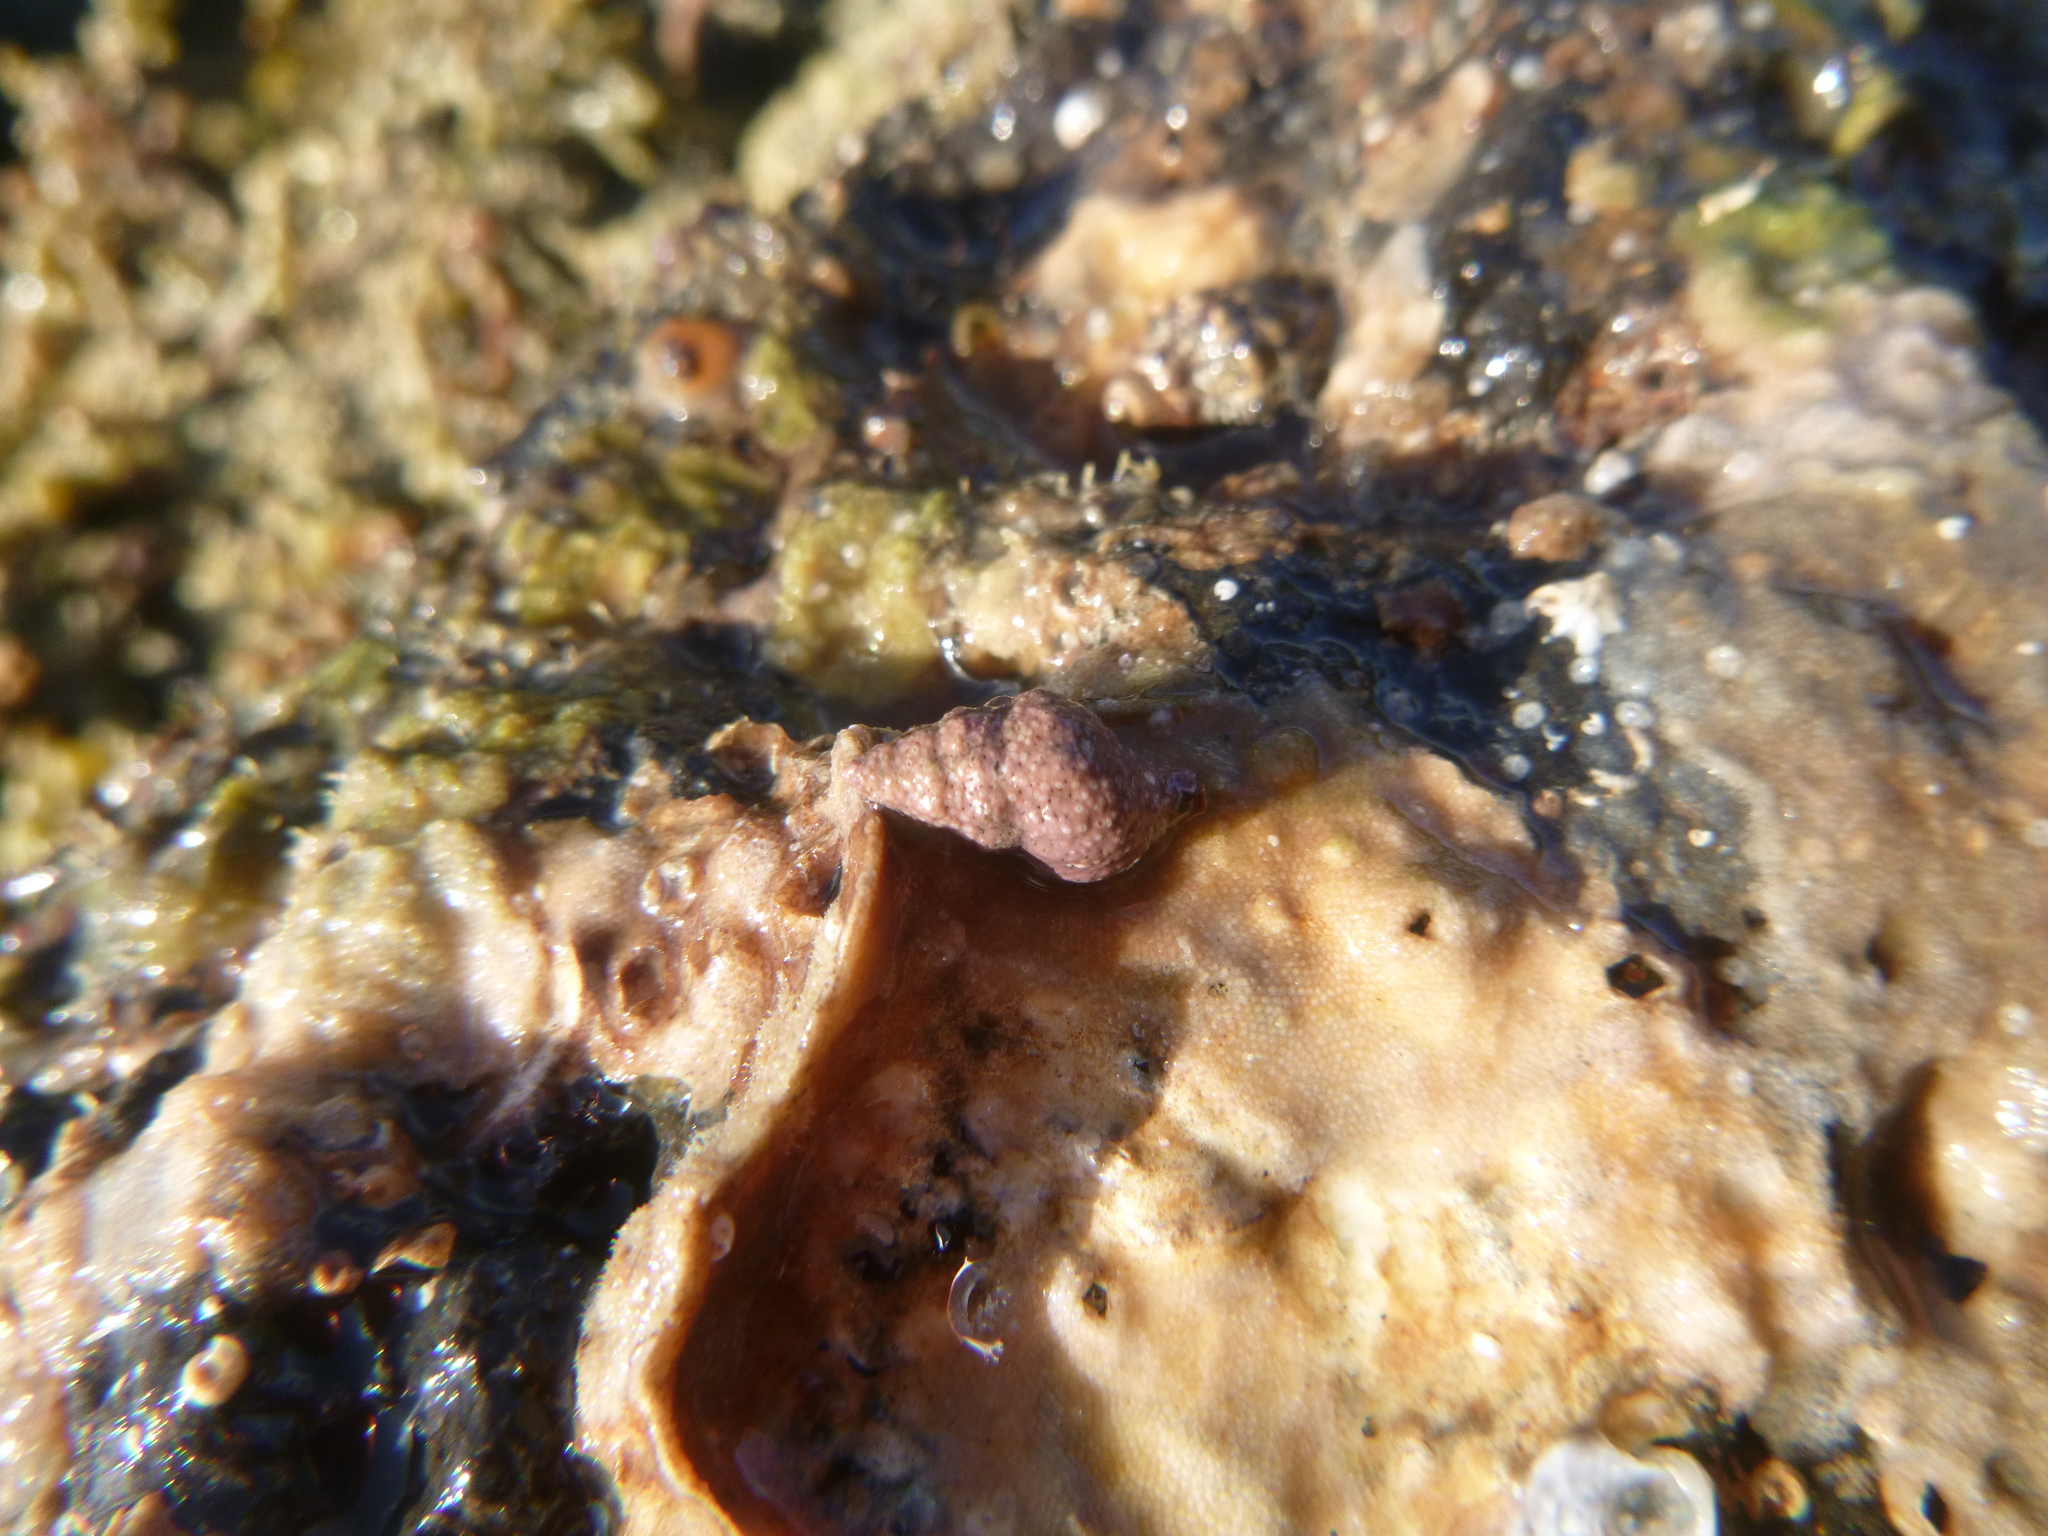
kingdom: Animalia
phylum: Mollusca
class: Gastropoda
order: Neogastropoda
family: Fasciolariidae
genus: Taron
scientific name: Taron dubius
